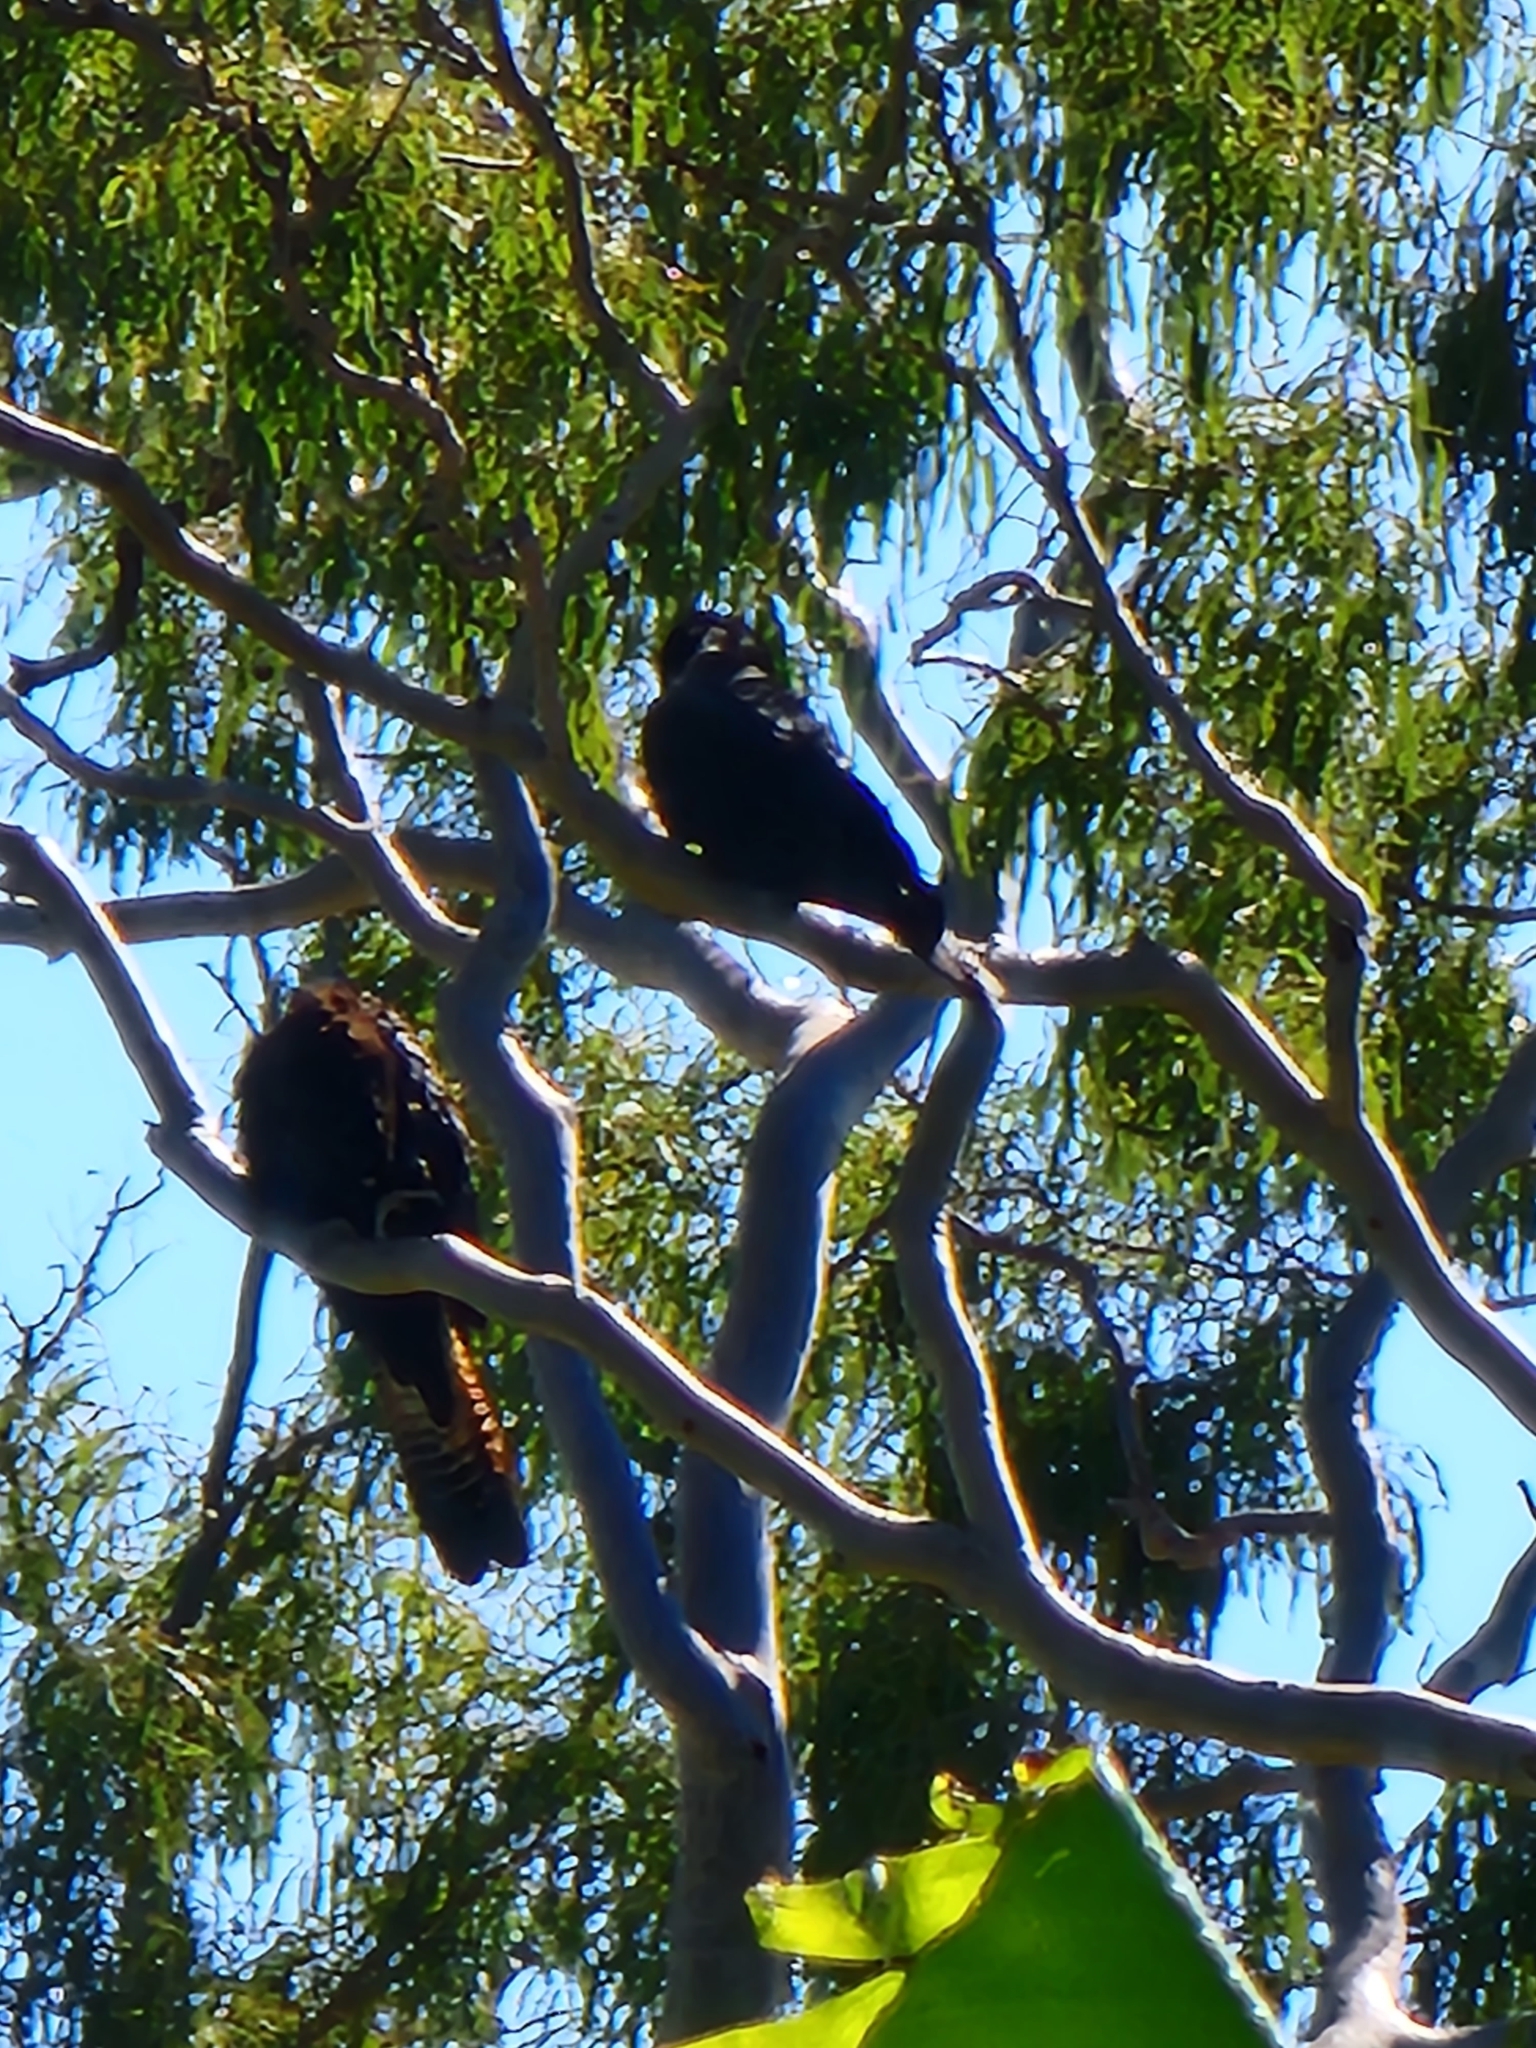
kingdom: Animalia
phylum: Chordata
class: Aves
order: Psittaciformes
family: Psittacidae
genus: Calyptorhynchus
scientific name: Calyptorhynchus banksii
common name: Red-tailed black cockatoo
